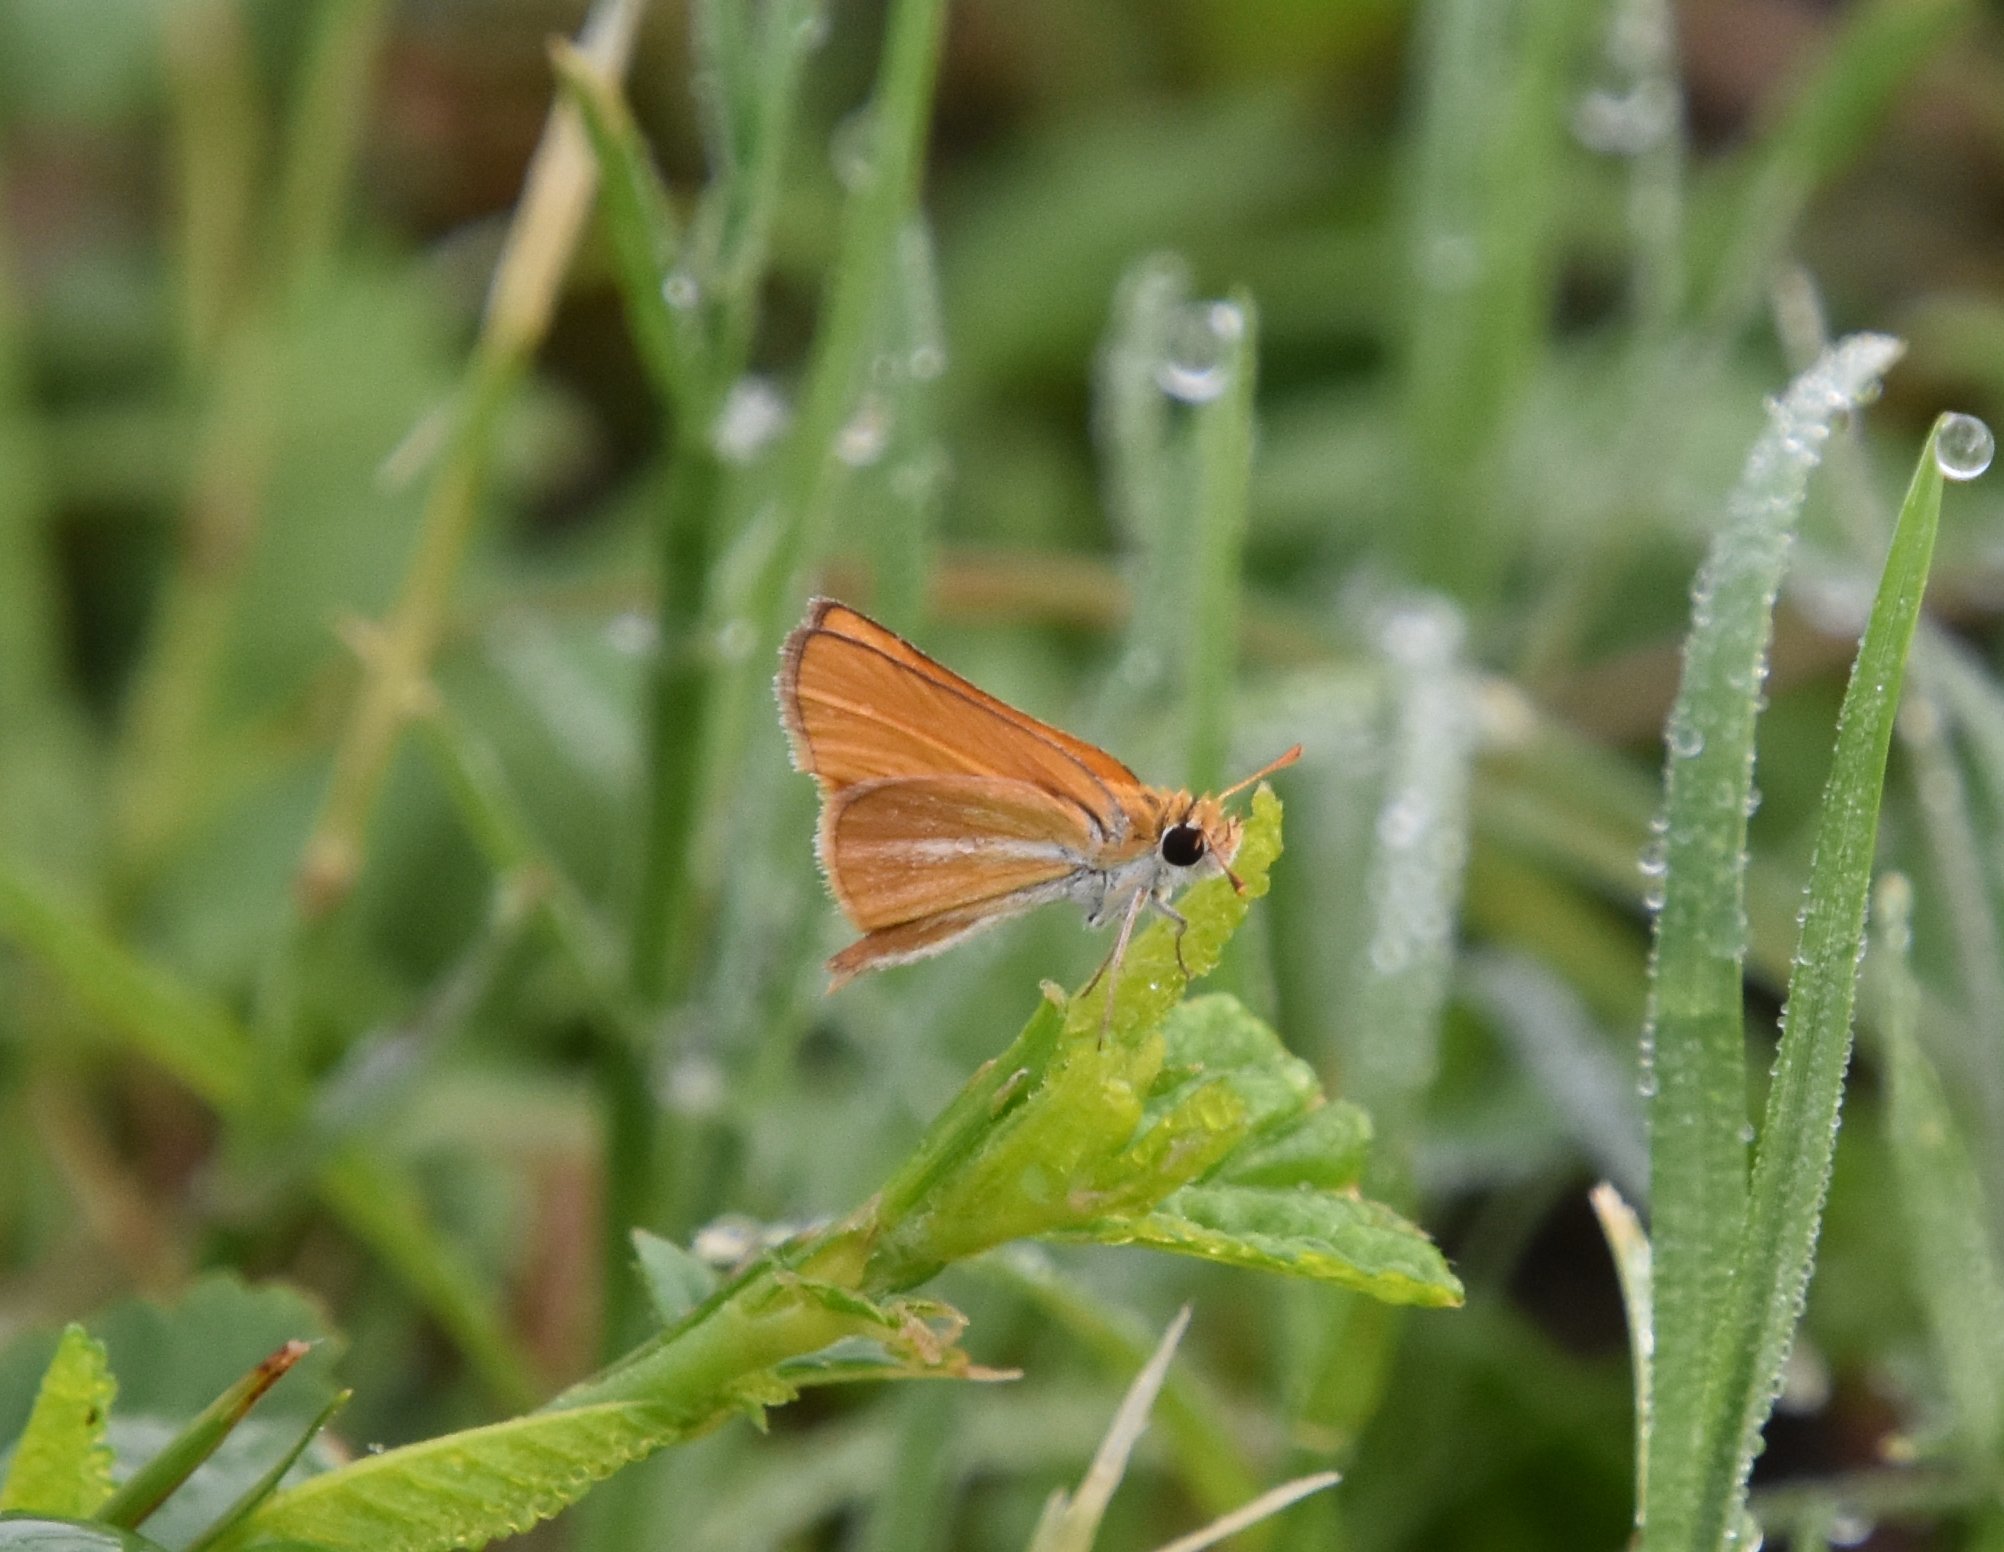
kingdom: Animalia
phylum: Arthropoda
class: Insecta
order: Lepidoptera
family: Hesperiidae
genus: Copaeodes
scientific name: Copaeodes minima
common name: Southern skipperling
